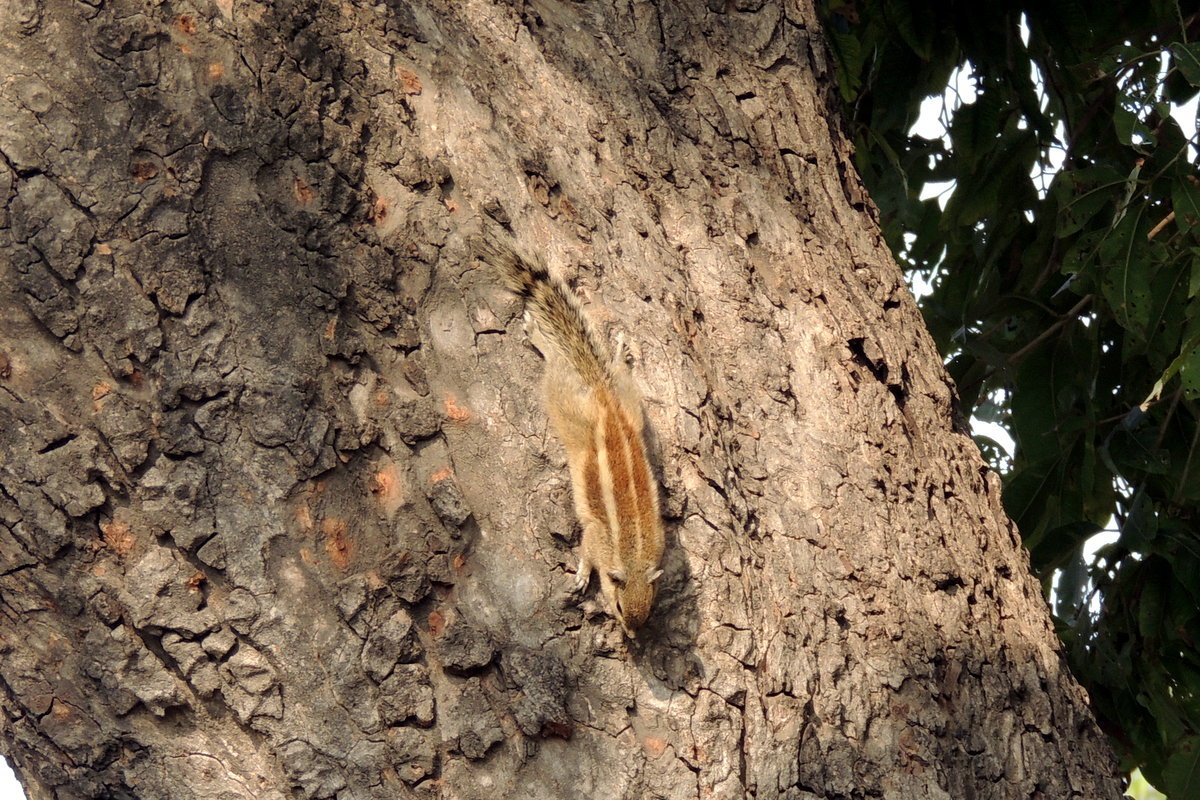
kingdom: Animalia
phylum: Chordata
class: Mammalia
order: Rodentia
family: Sciuridae
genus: Funambulus
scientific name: Funambulus pennantii
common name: Northern palm squirrel
